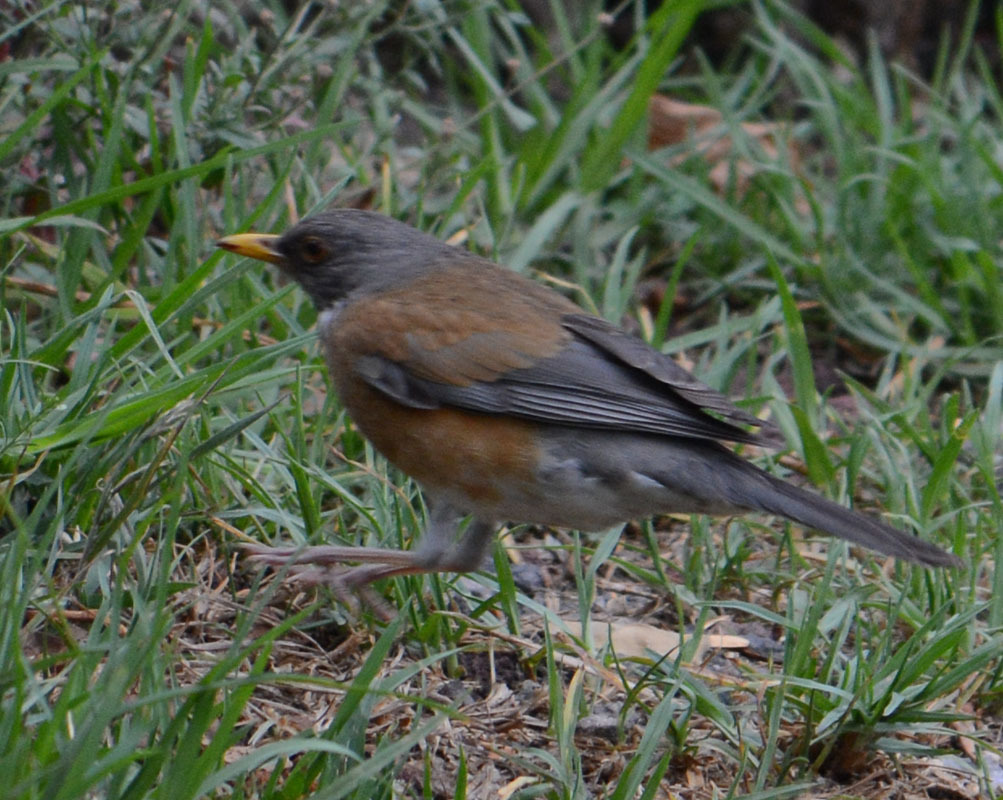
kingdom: Animalia
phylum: Chordata
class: Aves
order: Passeriformes
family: Turdidae
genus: Turdus
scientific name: Turdus rufopalliatus
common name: Rufous-backed robin
